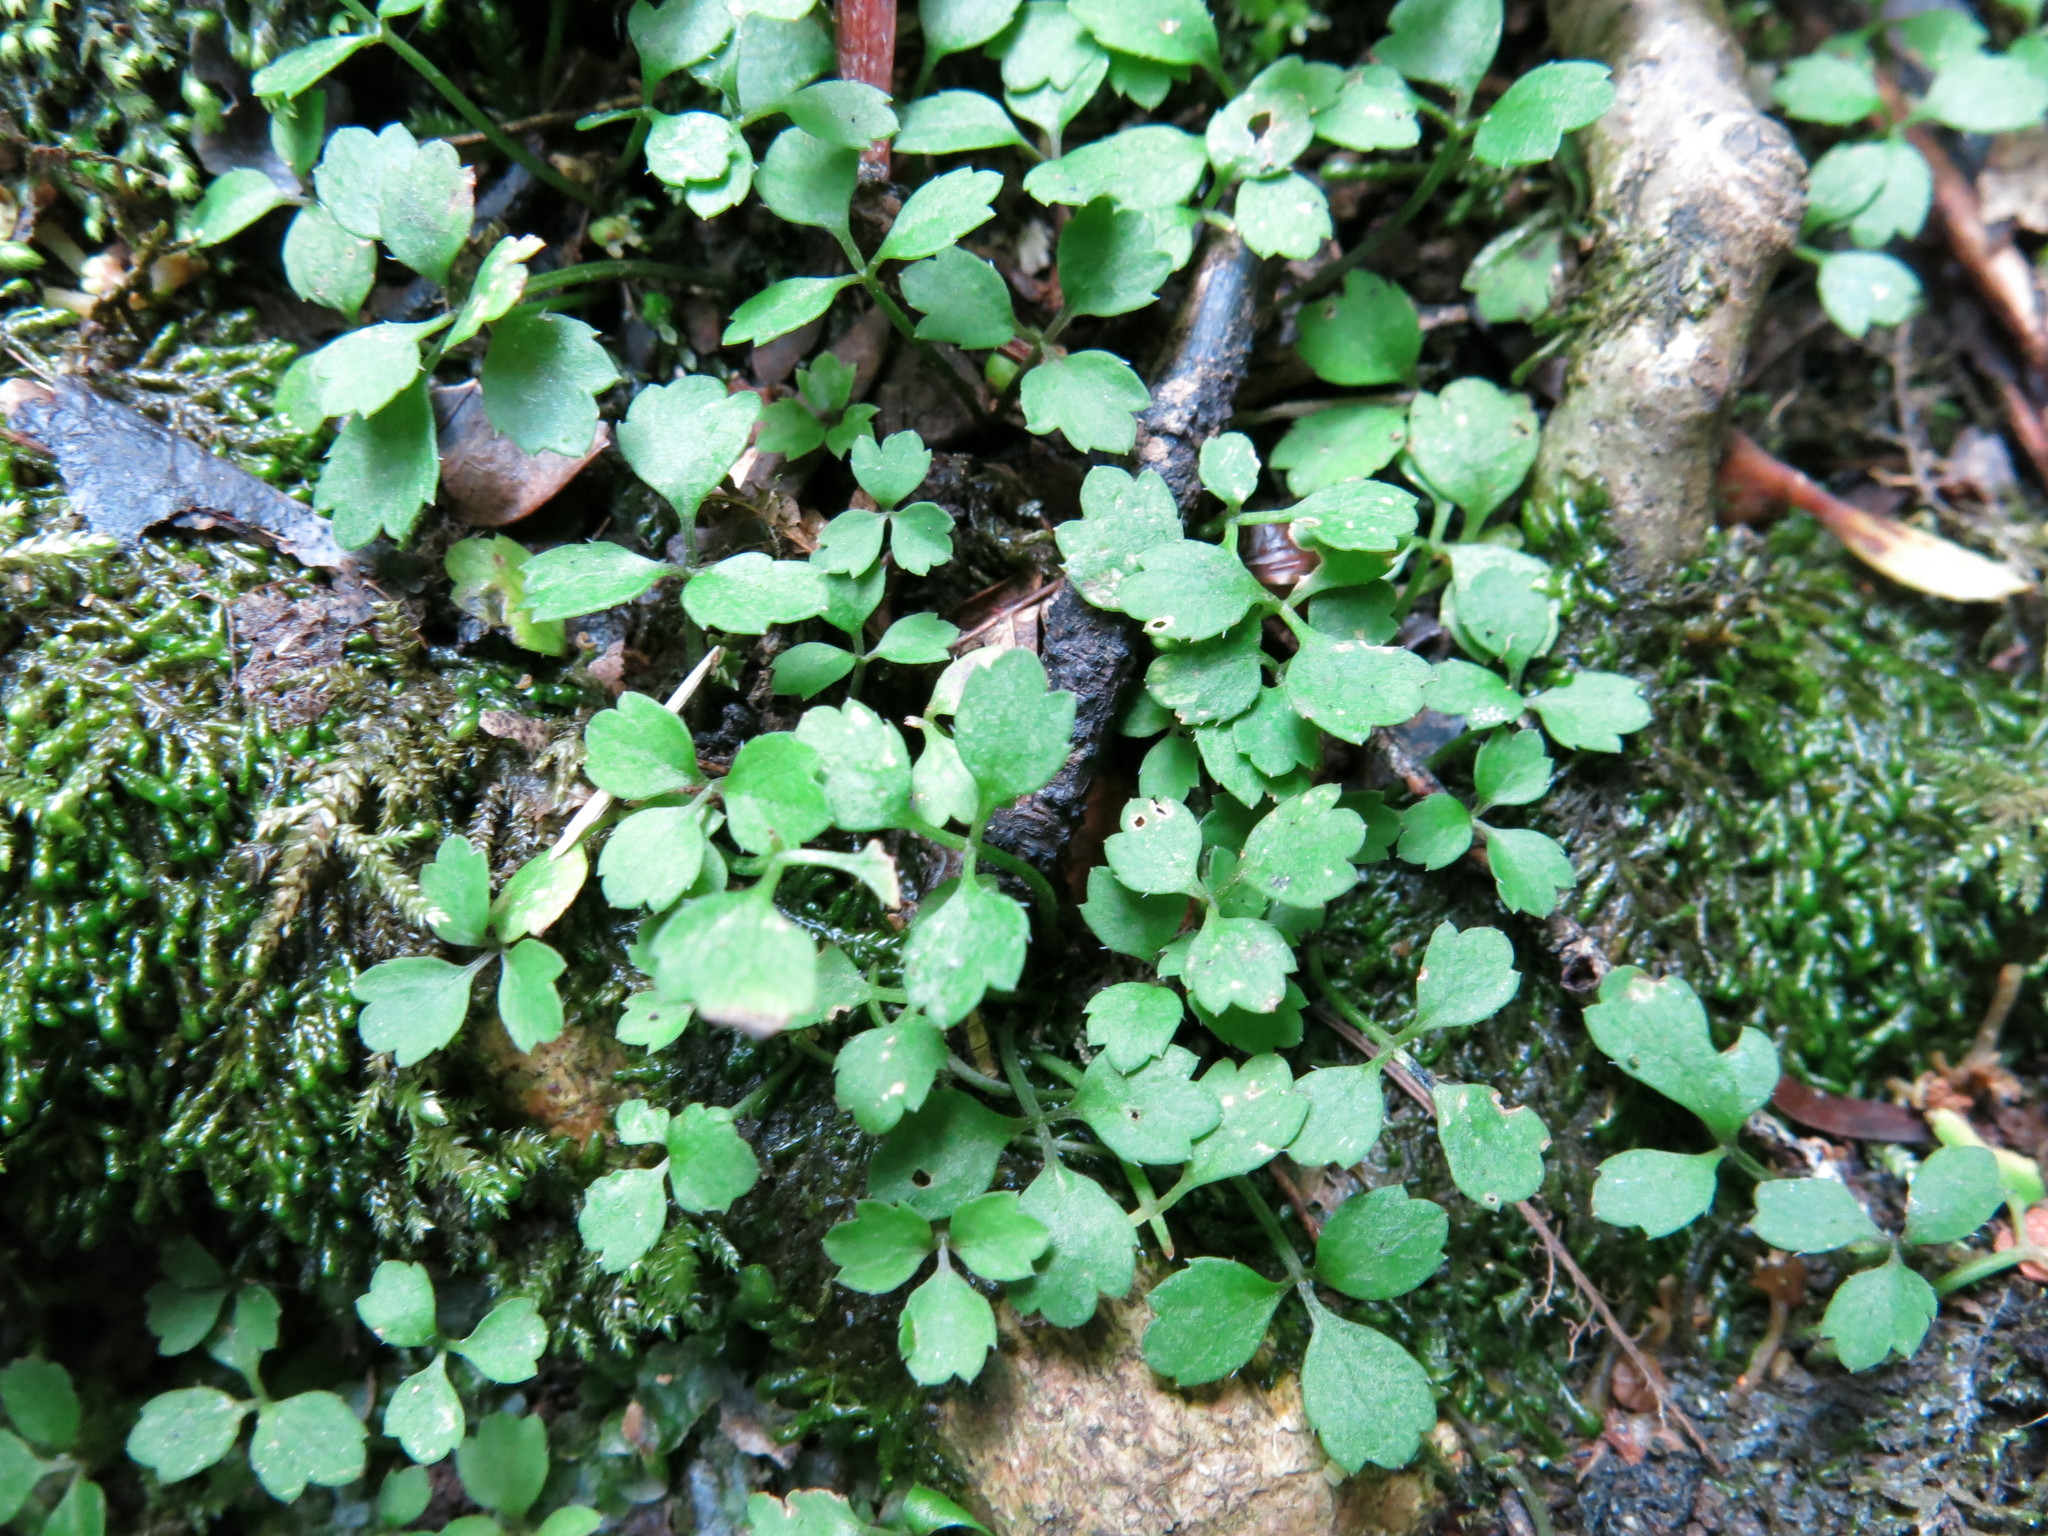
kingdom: Plantae
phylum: Tracheophyta
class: Magnoliopsida
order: Apiales
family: Apiaceae
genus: Azorella
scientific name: Azorella hookeri
